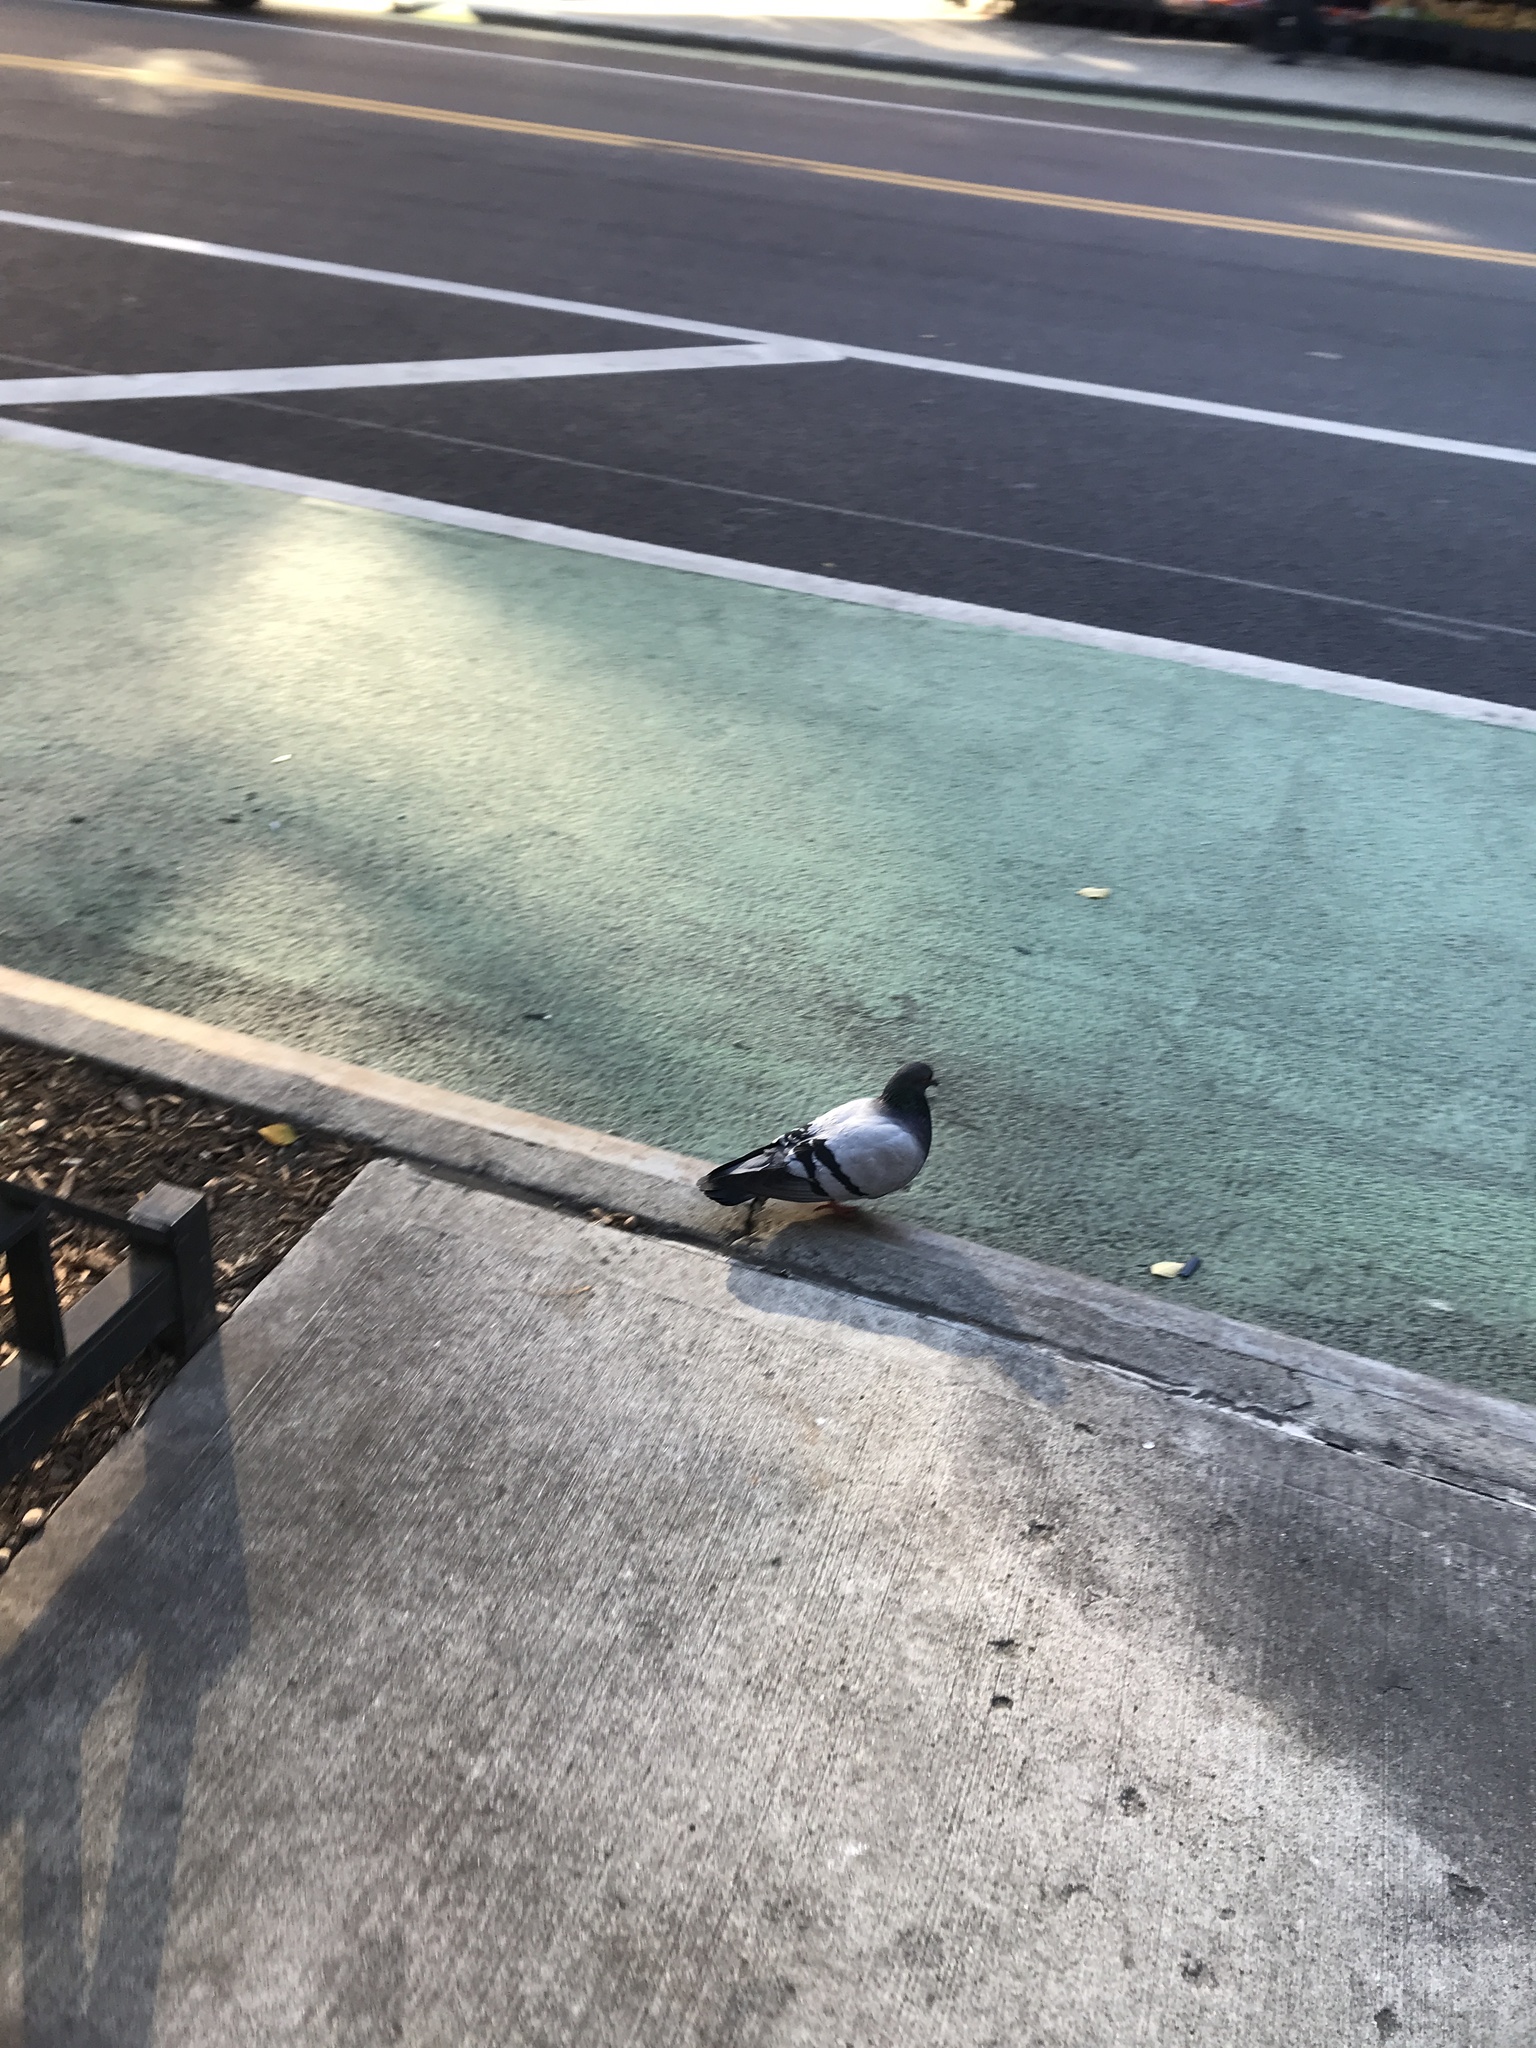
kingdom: Animalia
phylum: Chordata
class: Aves
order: Columbiformes
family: Columbidae
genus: Columba
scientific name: Columba livia
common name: Rock pigeon
